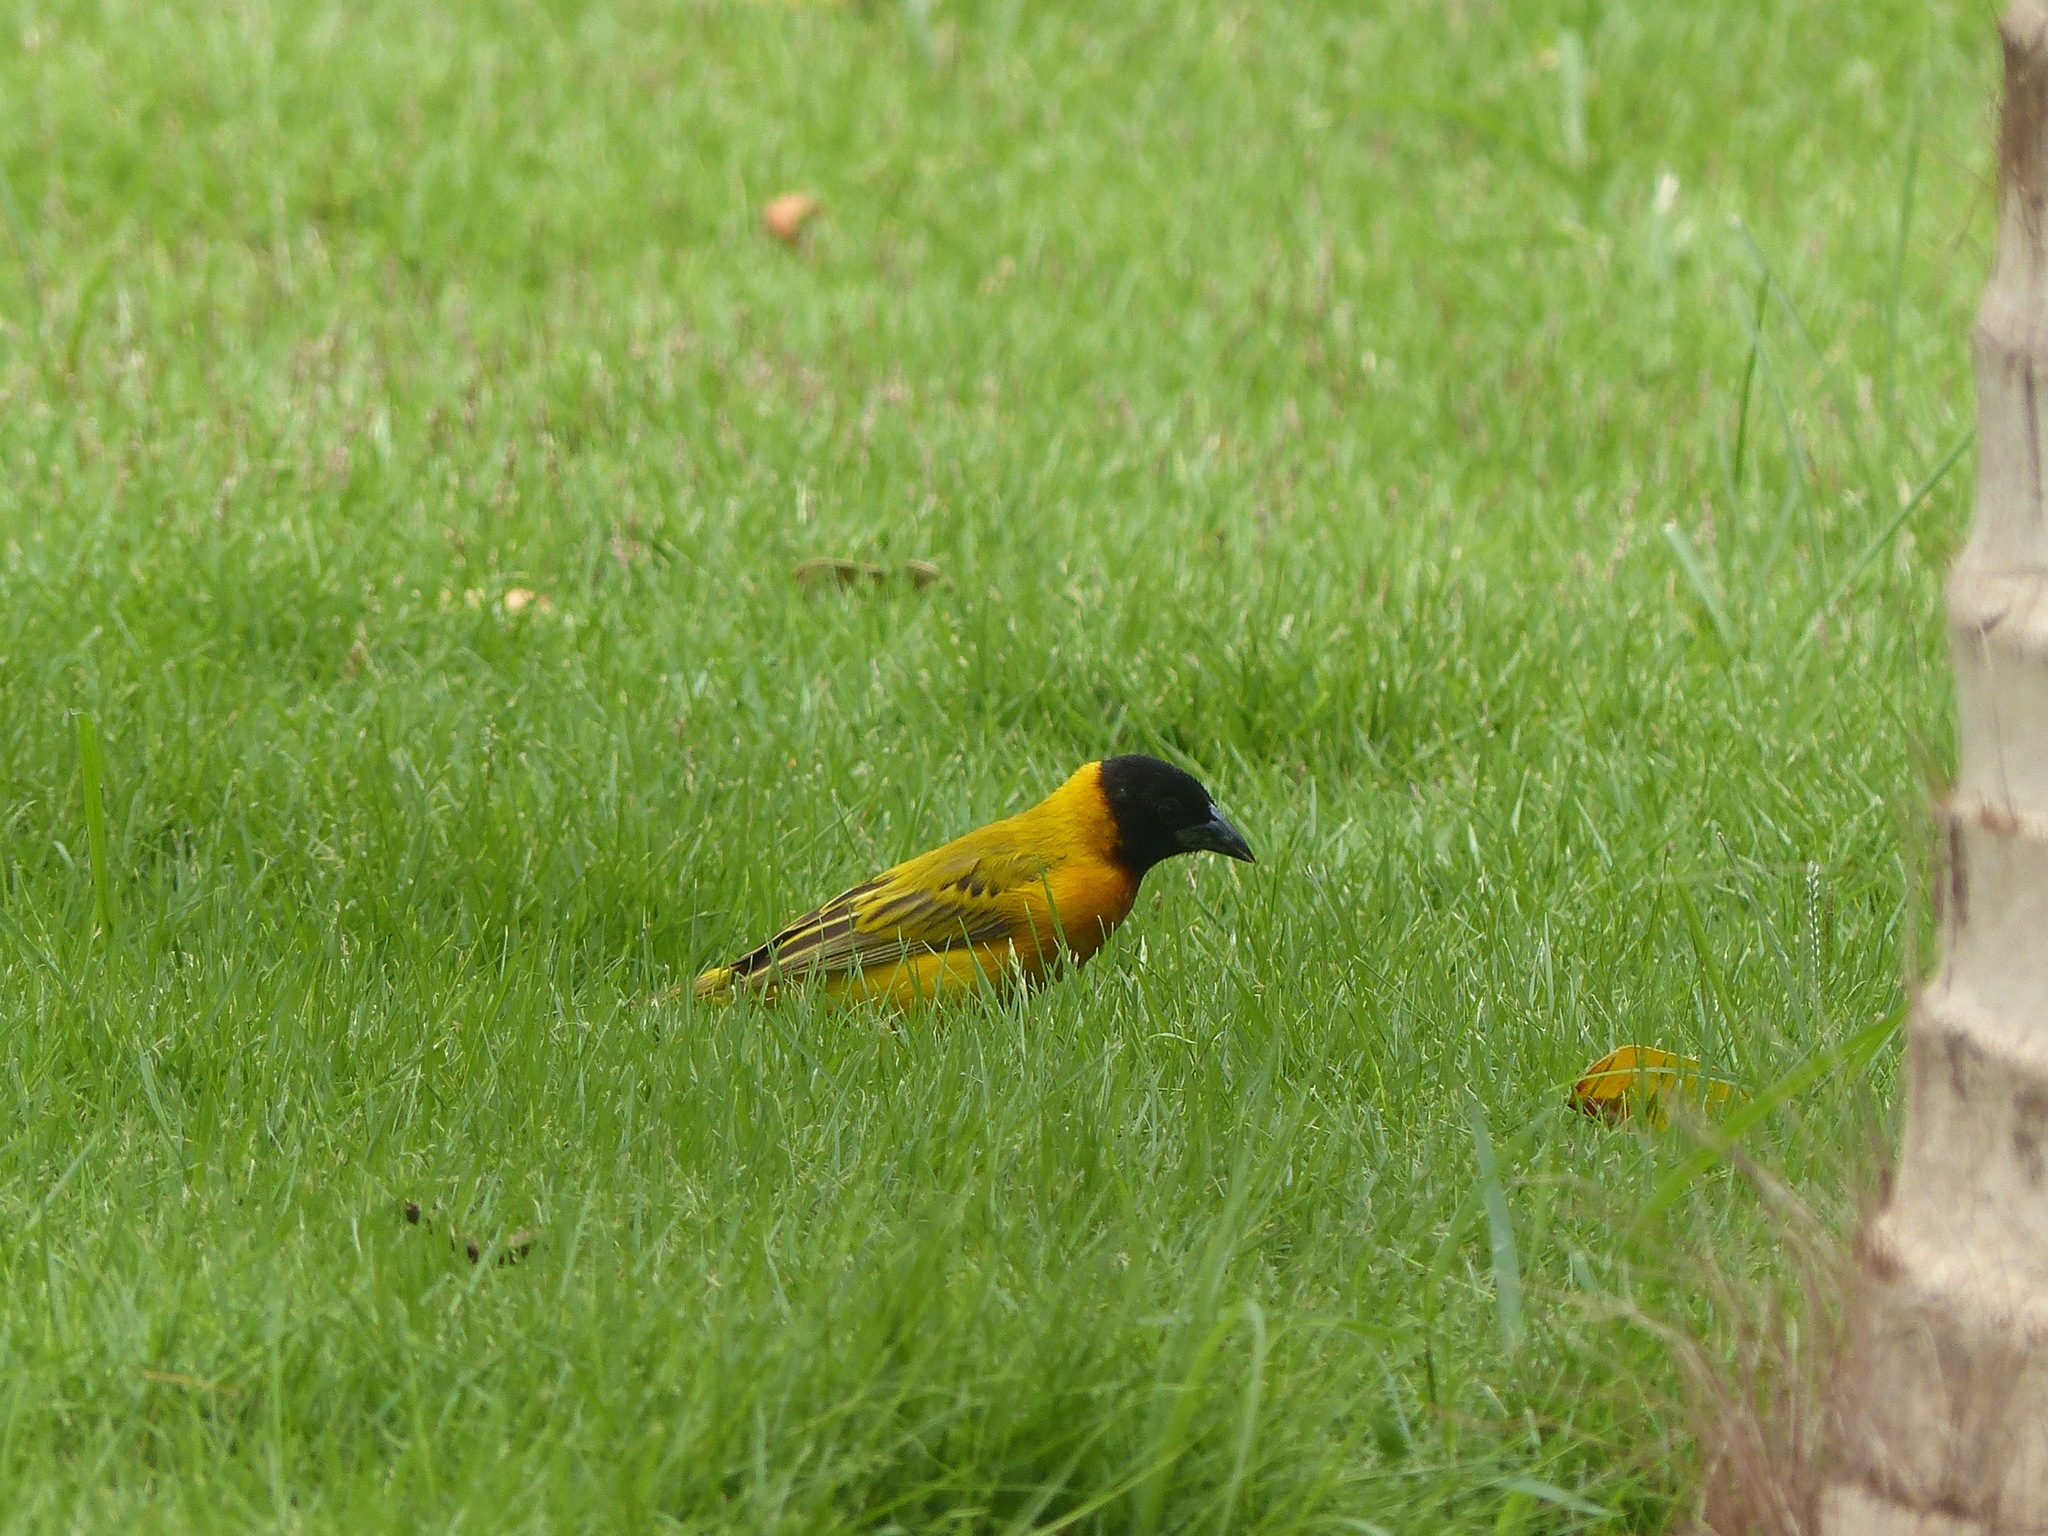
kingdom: Animalia
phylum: Chordata
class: Aves
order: Passeriformes
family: Ploceidae
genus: Ploceus
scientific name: Ploceus melanocephalus
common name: Black-headed weaver
